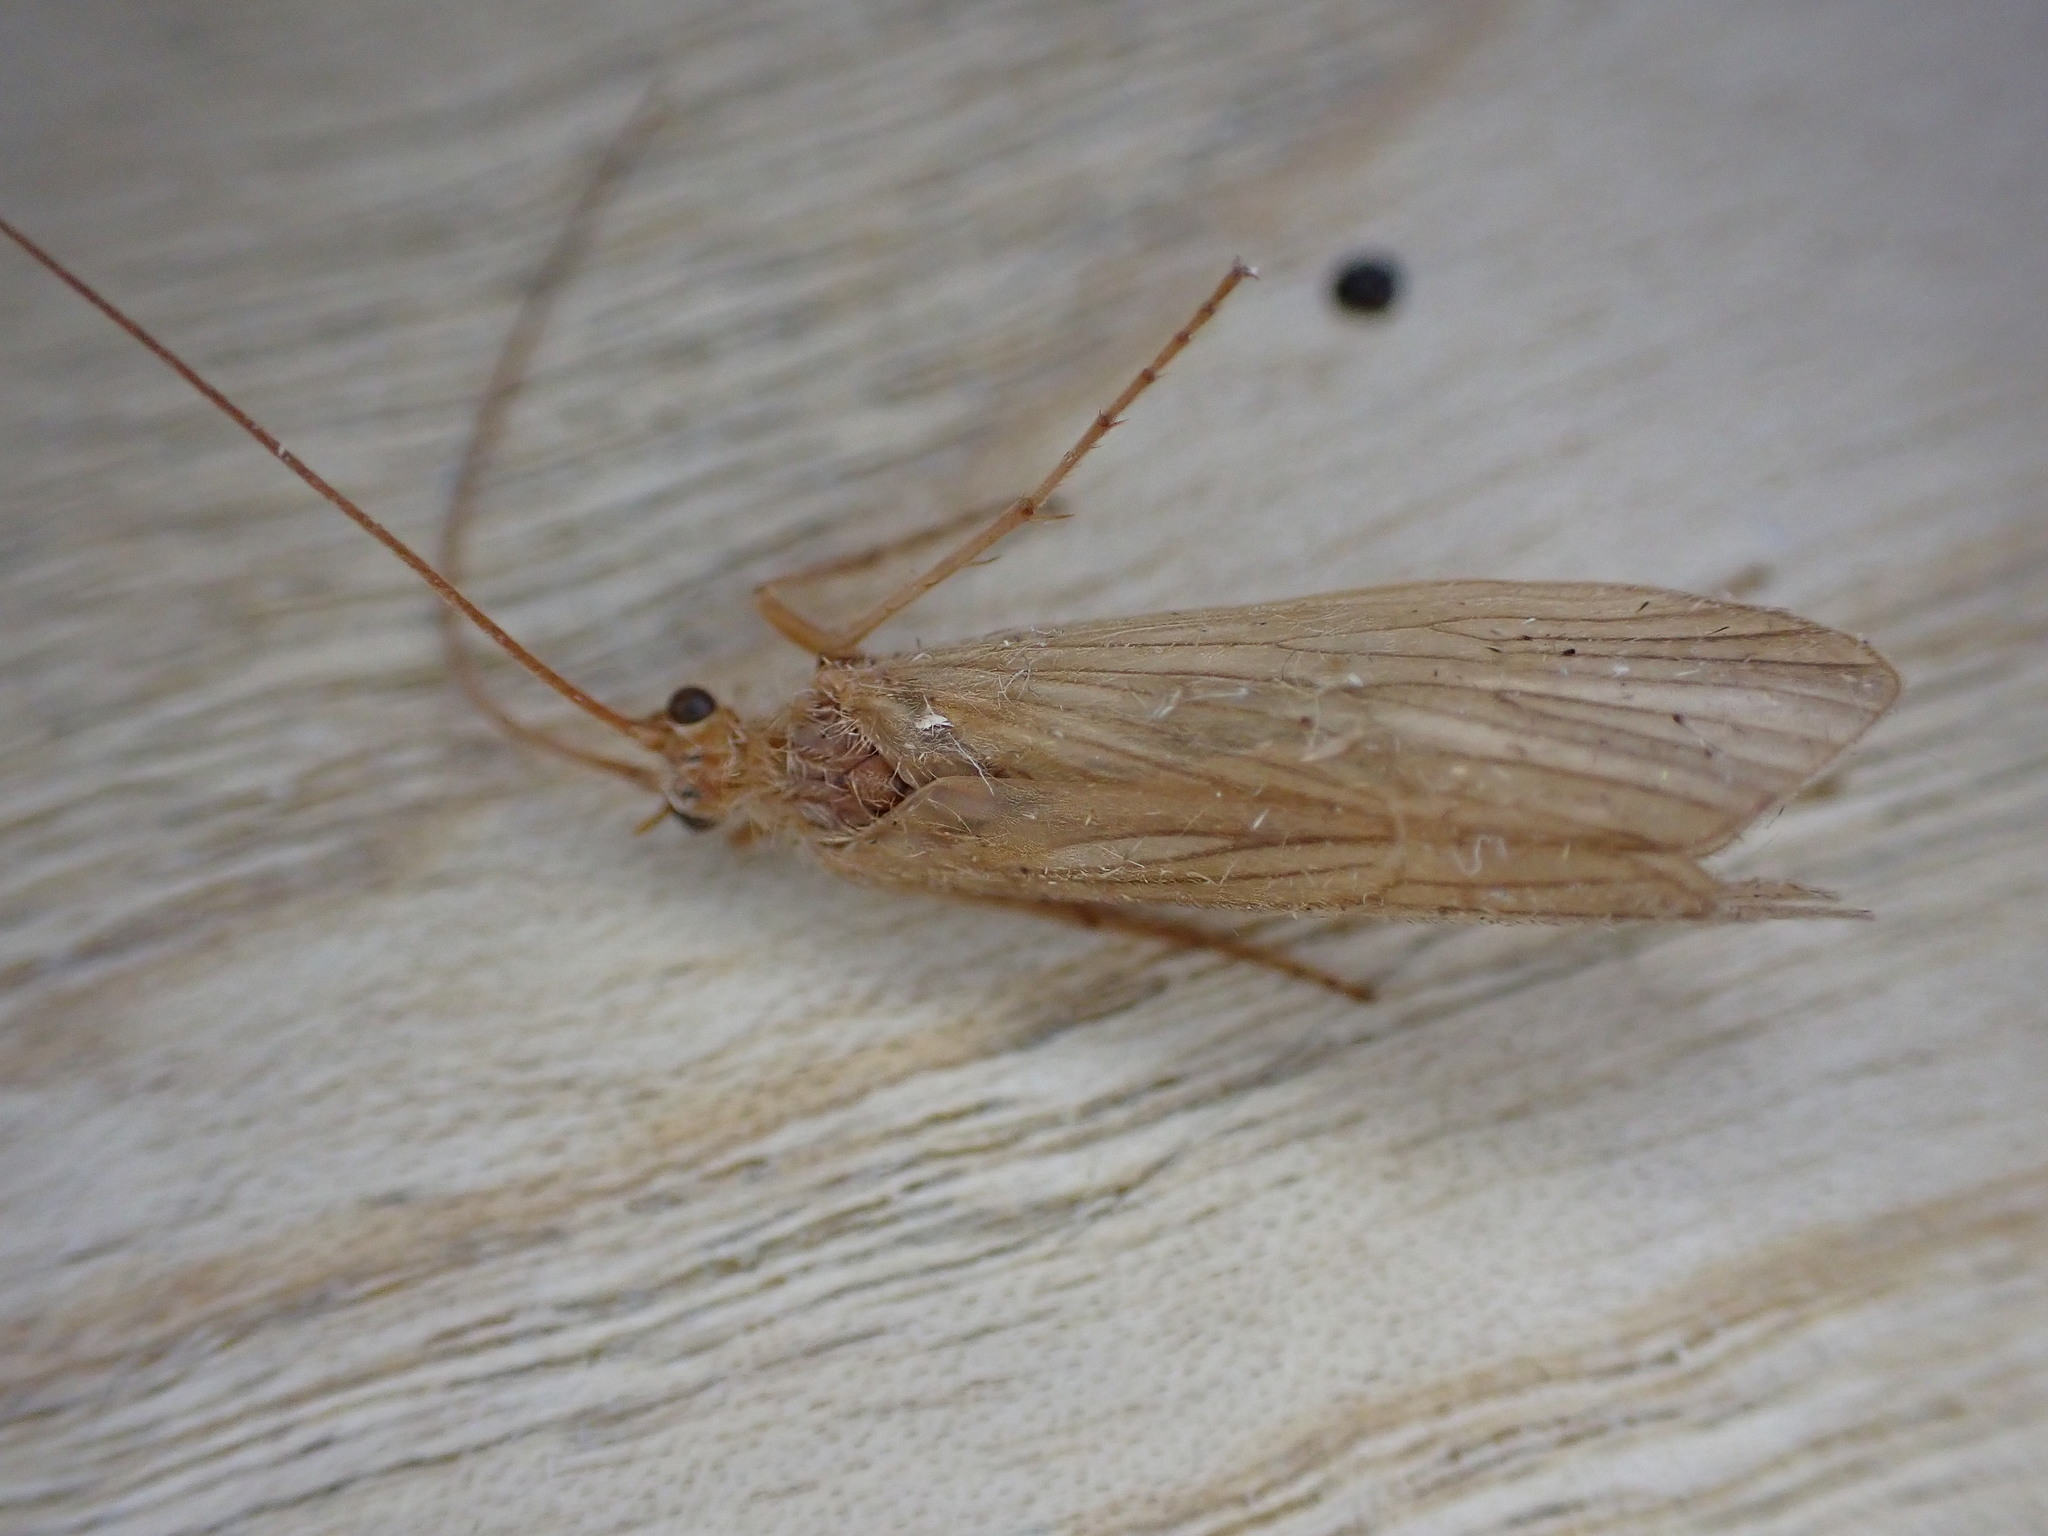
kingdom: Animalia
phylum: Arthropoda
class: Insecta
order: Trichoptera
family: Phryganeidae
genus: Agrypnia
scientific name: Agrypnia pagetana
